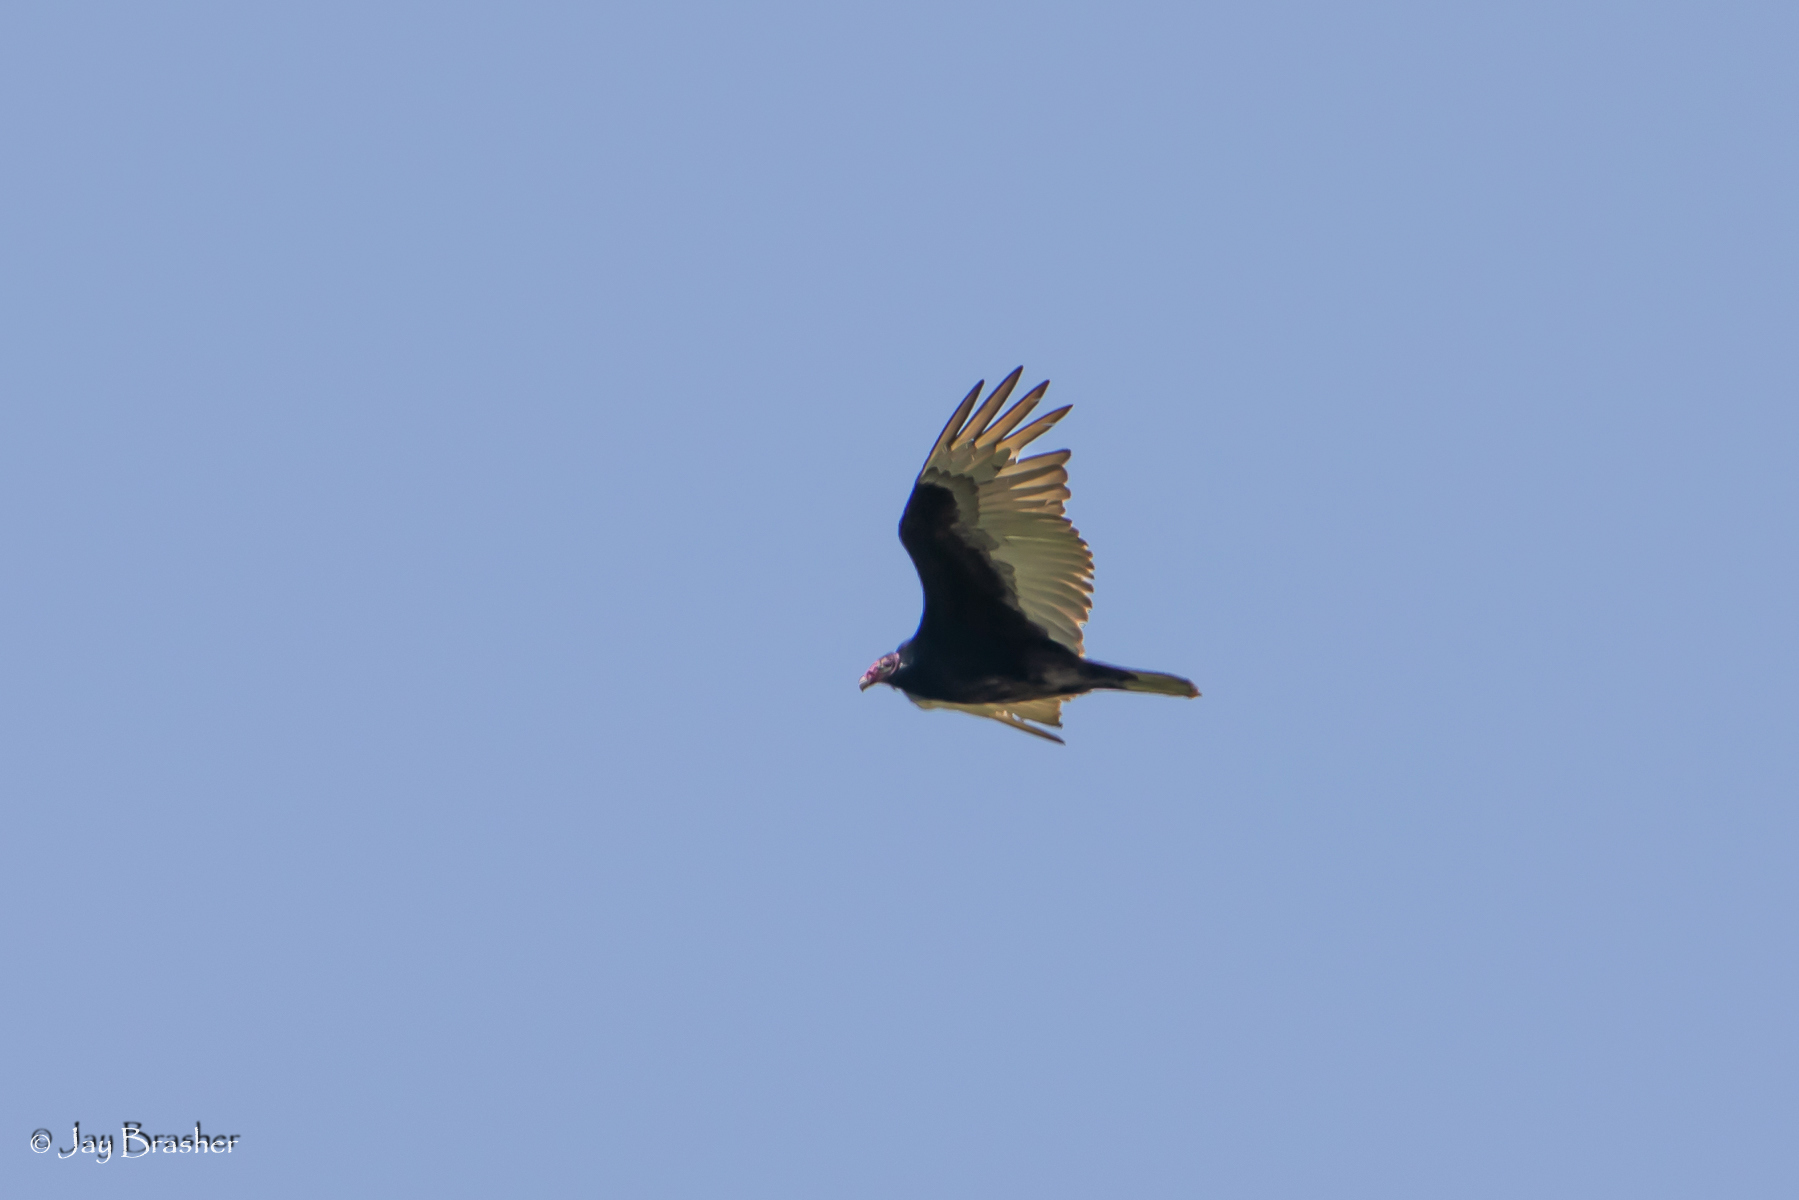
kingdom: Animalia
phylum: Chordata
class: Aves
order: Accipitriformes
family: Cathartidae
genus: Cathartes
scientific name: Cathartes aura
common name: Turkey vulture
